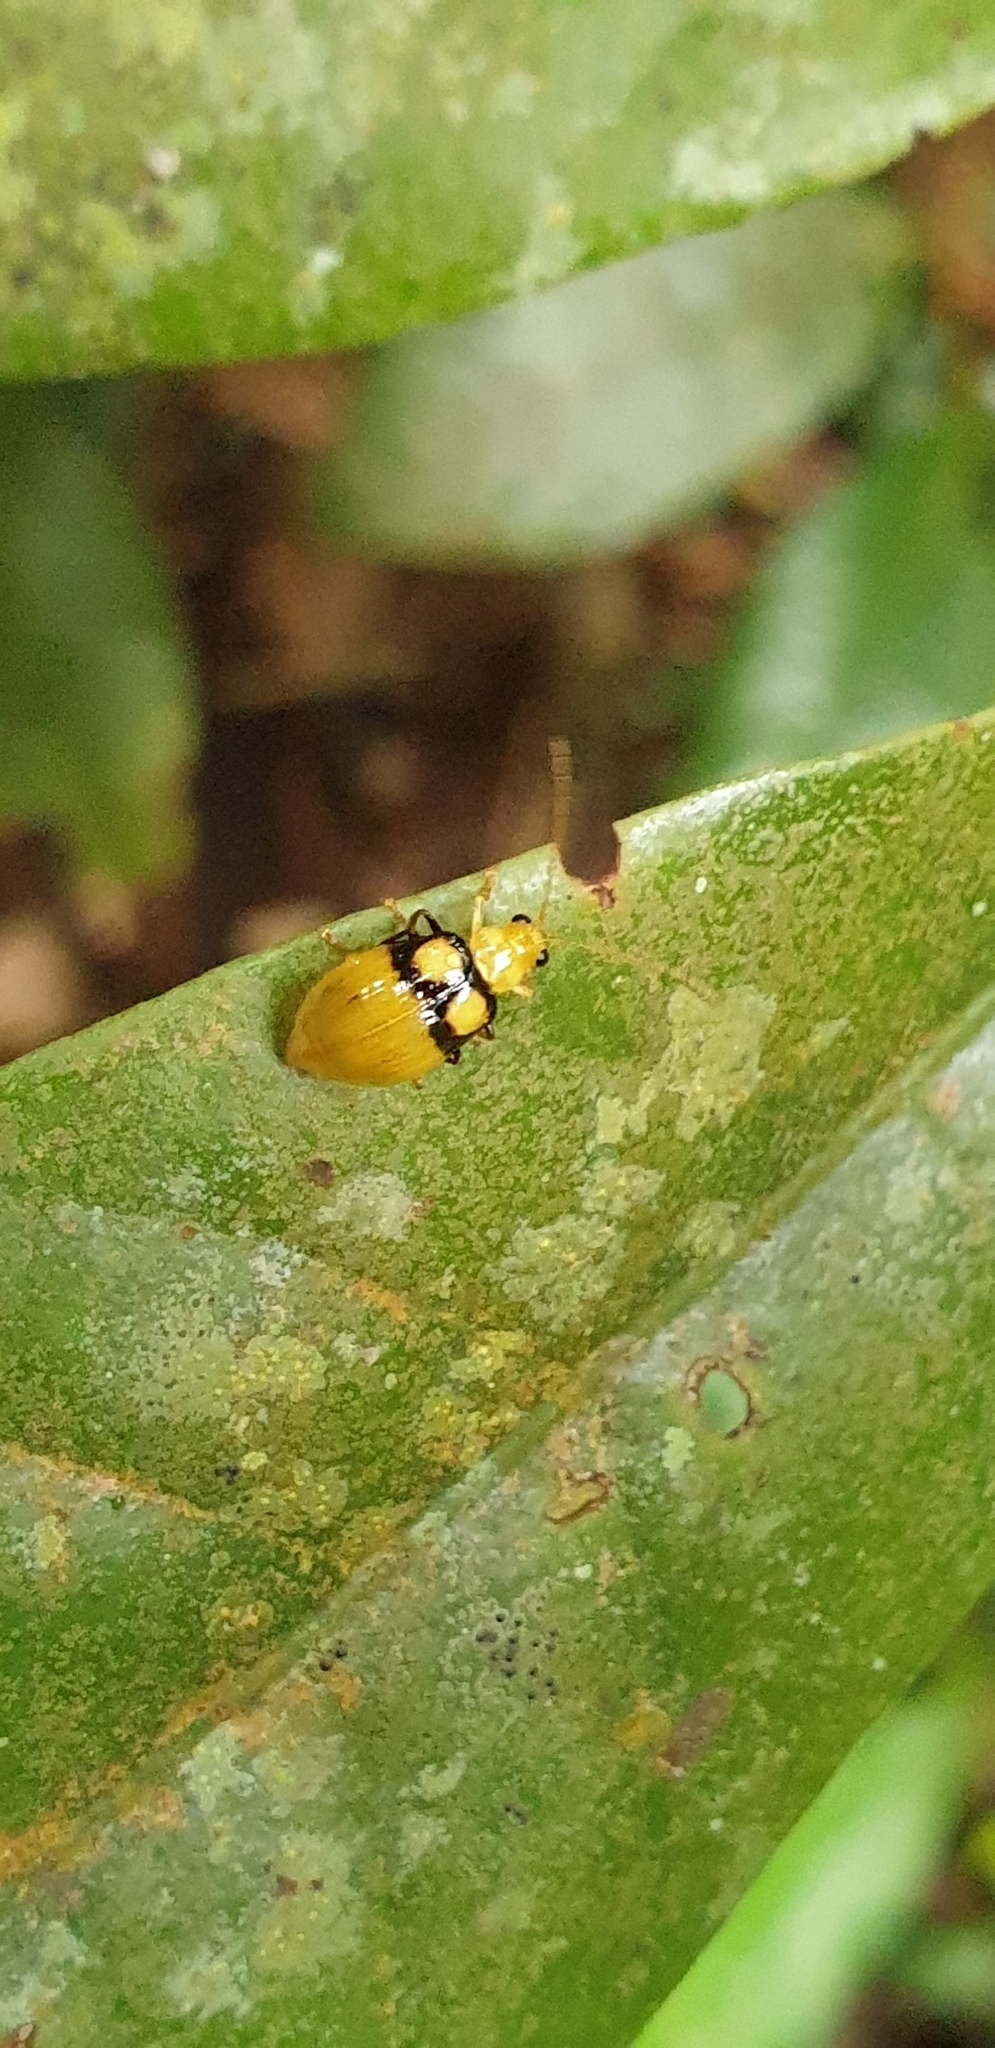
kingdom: Animalia
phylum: Arthropoda
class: Insecta
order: Coleoptera
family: Chrysomelidae
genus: Monolepta
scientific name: Monolepta
